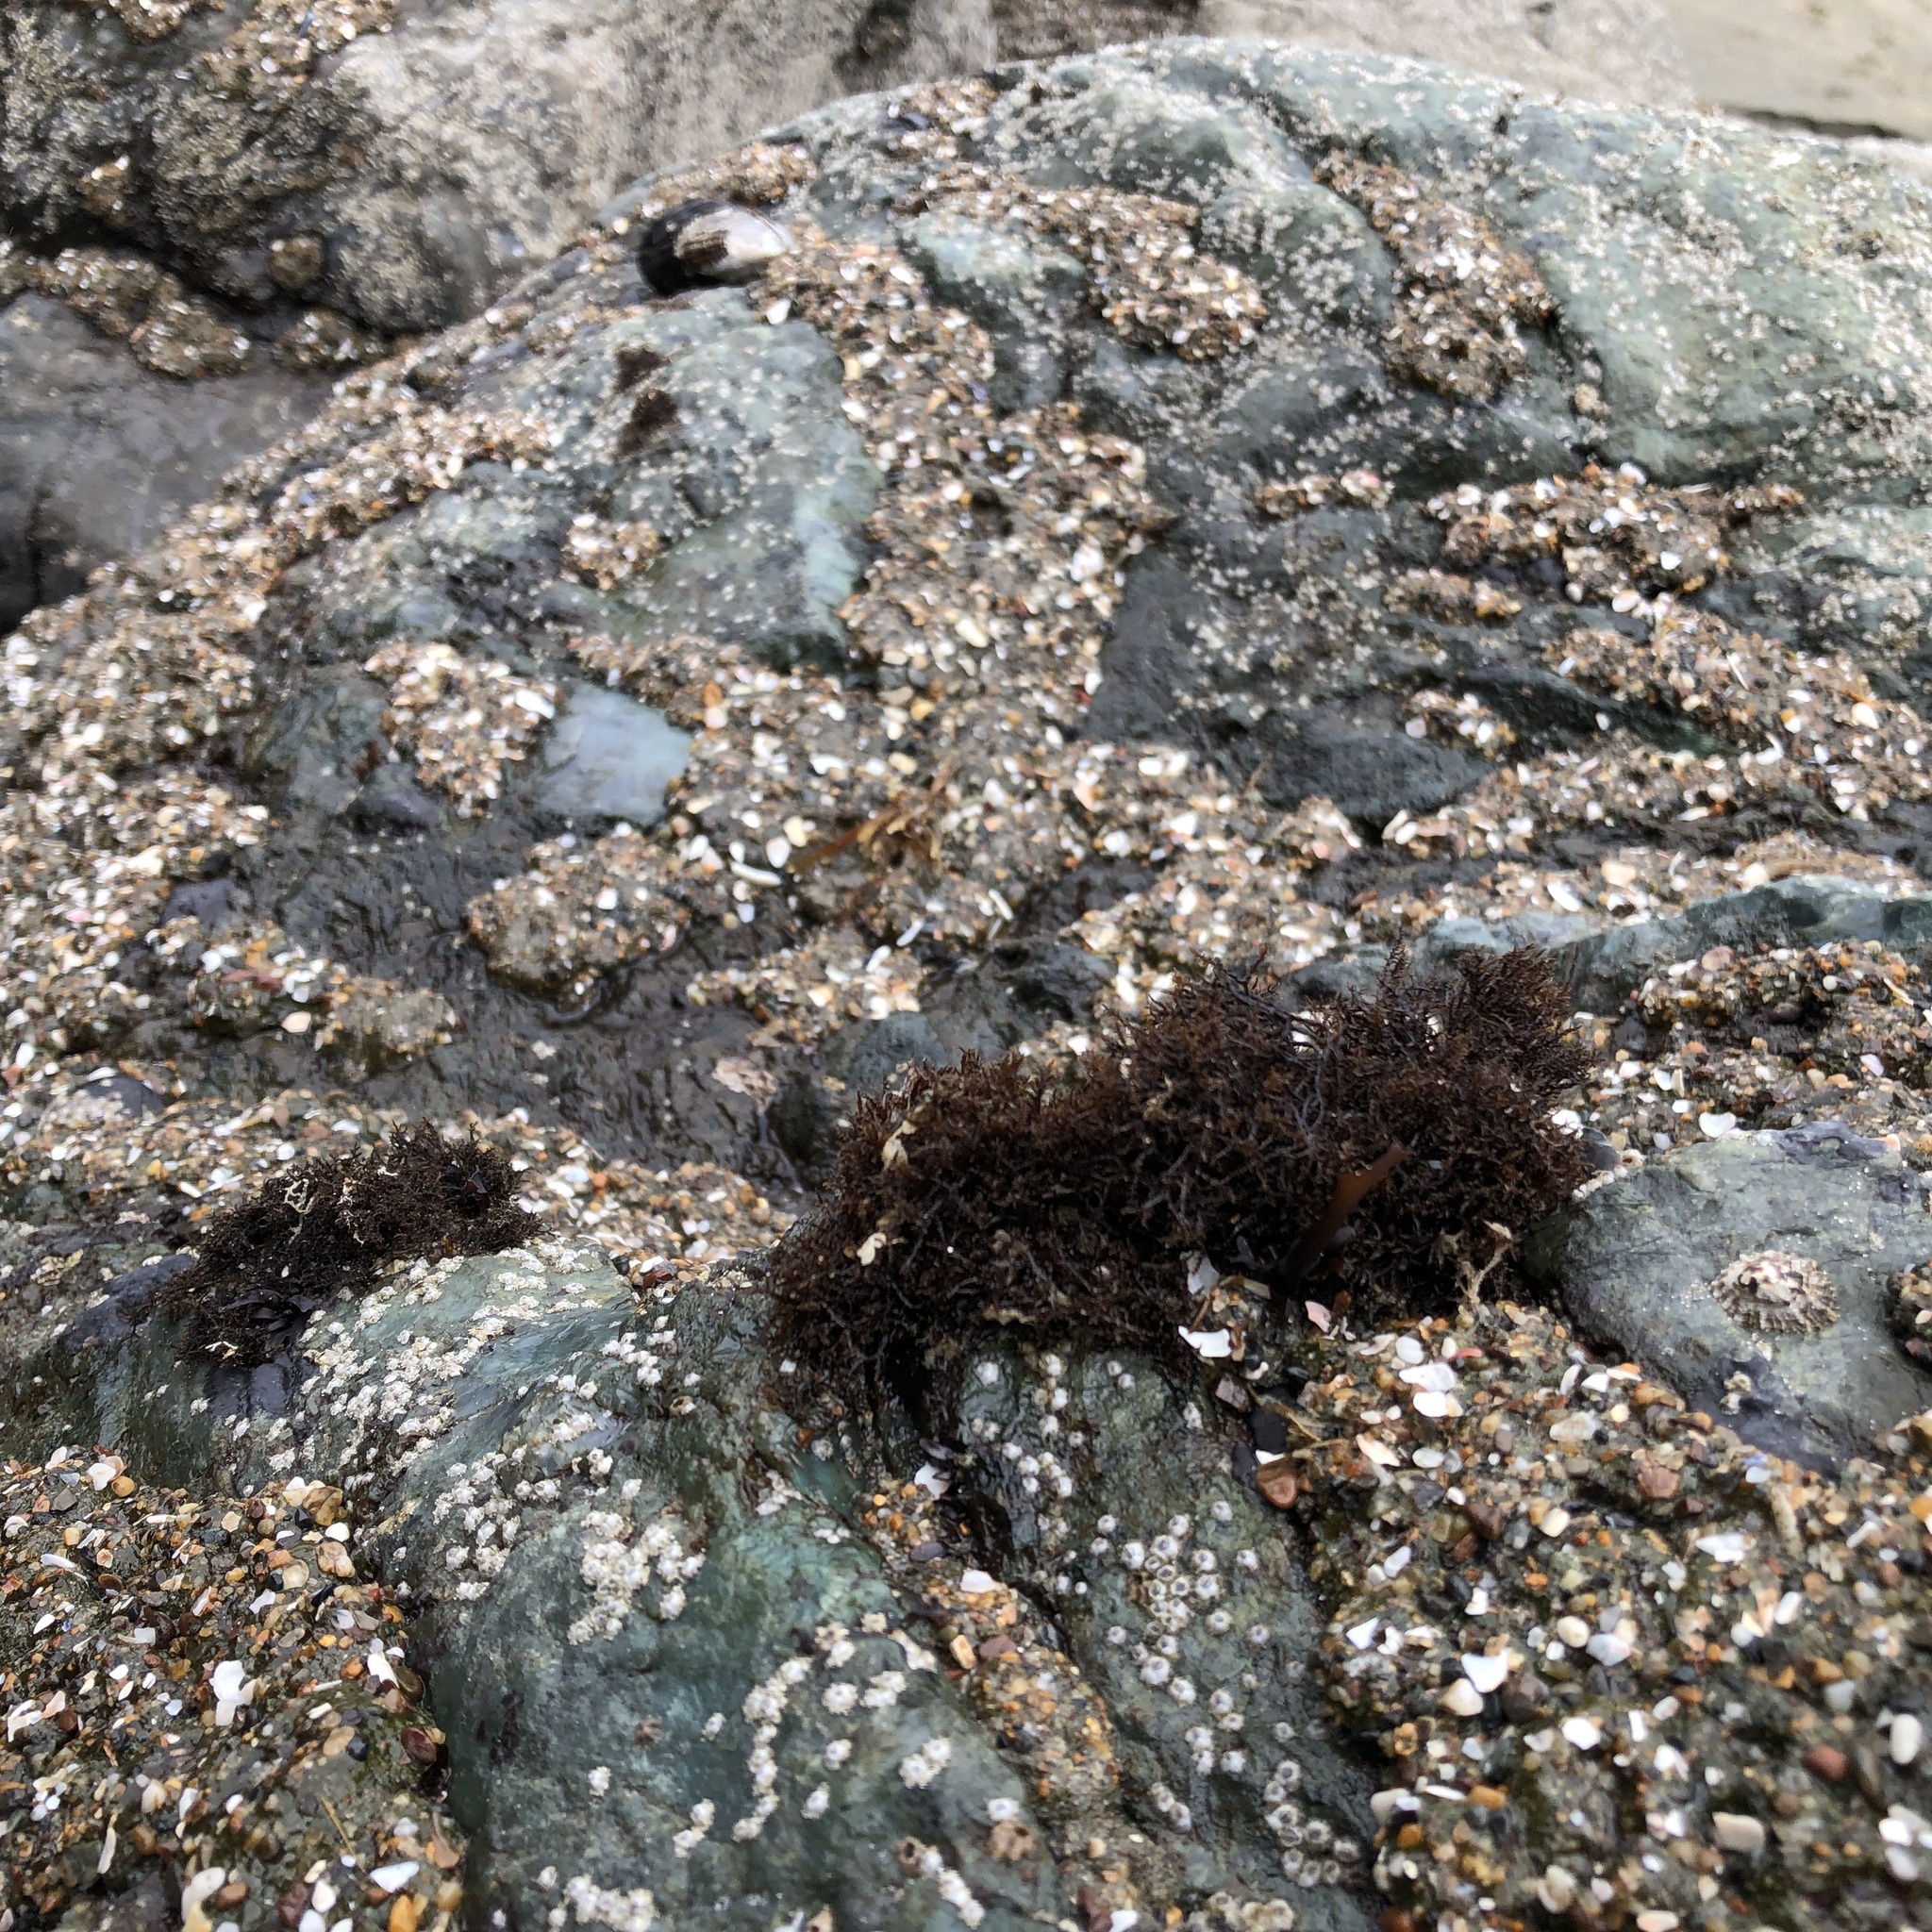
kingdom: Plantae
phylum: Rhodophyta
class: Florideophyceae
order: Gigartinales
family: Endocladiaceae
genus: Endocladia
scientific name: Endocladia muricata
